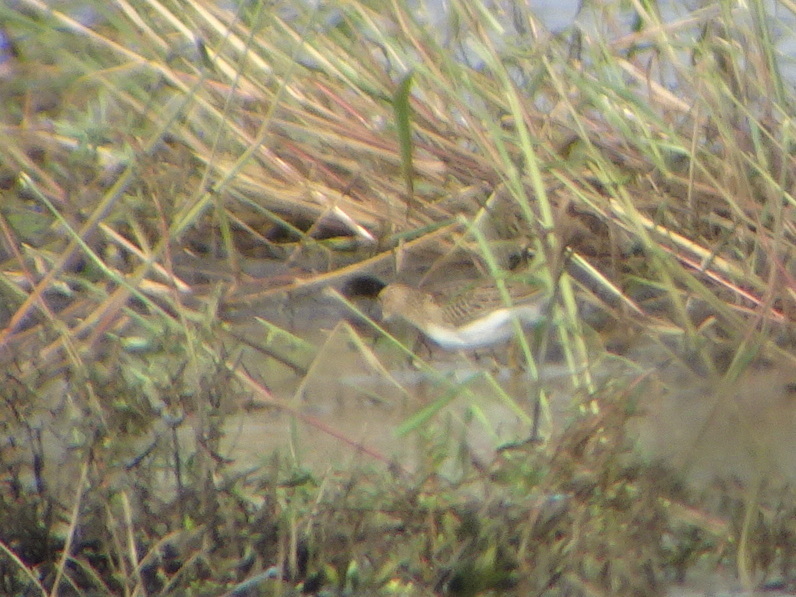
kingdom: Animalia
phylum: Chordata
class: Aves
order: Charadriiformes
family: Scolopacidae
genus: Calidris
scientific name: Calidris melanotos
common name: Pectoral sandpiper
